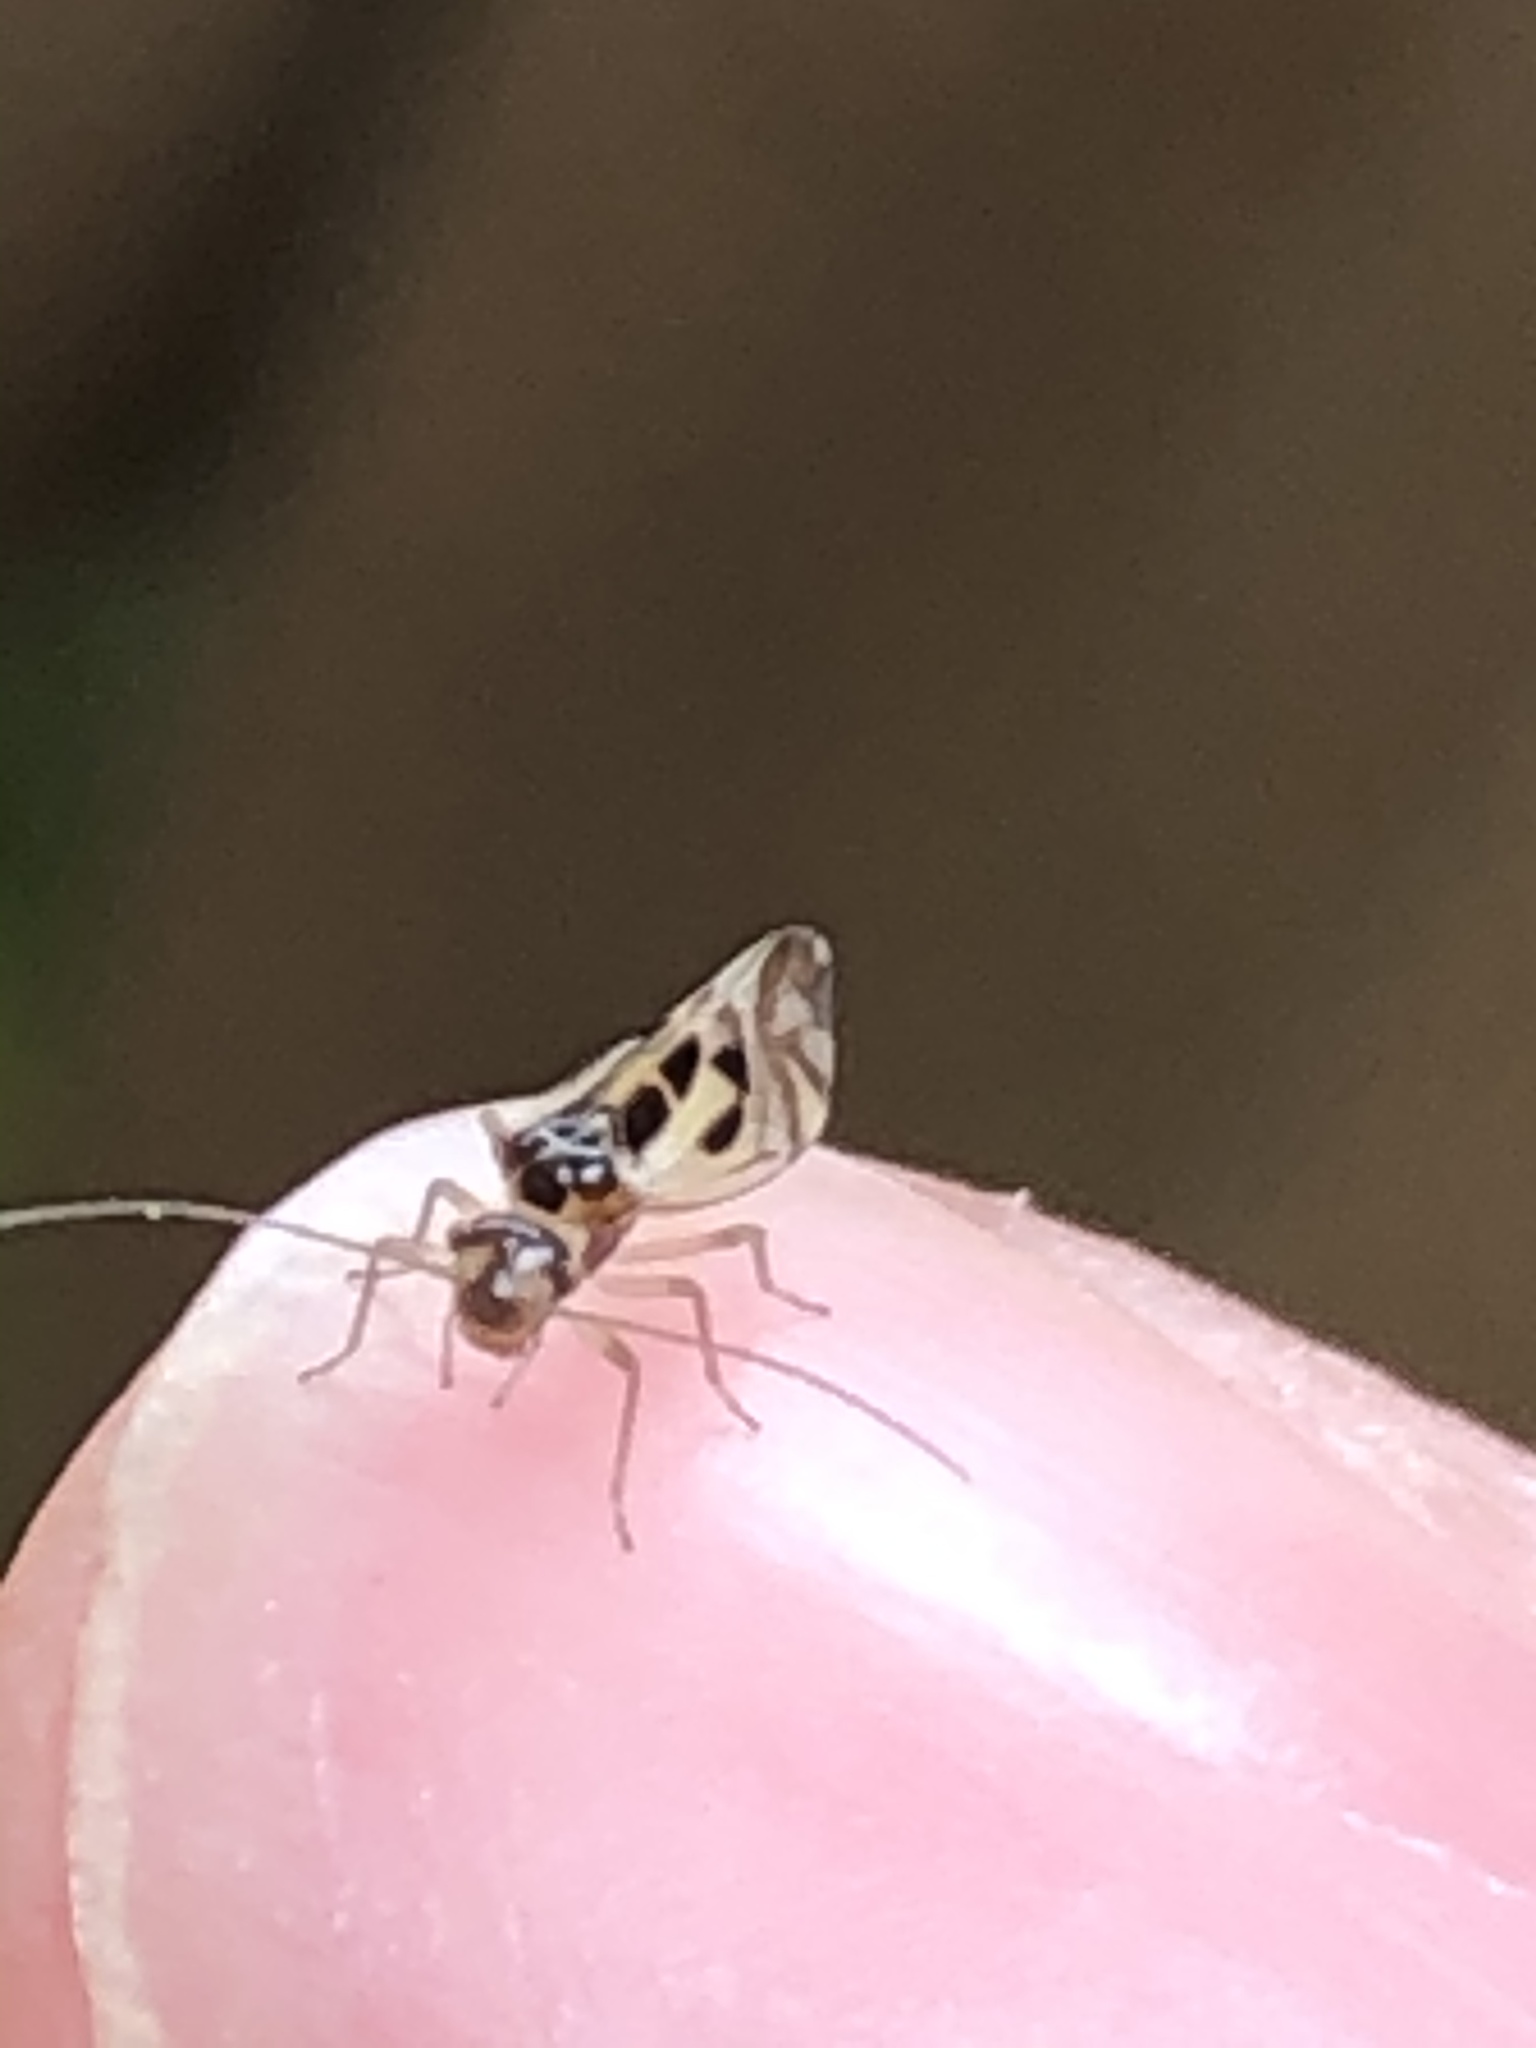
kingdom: Animalia
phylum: Arthropoda
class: Insecta
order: Psocodea
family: Stenopsocidae
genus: Graphopsocus
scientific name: Graphopsocus cruciatus
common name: Lizard bark louse
